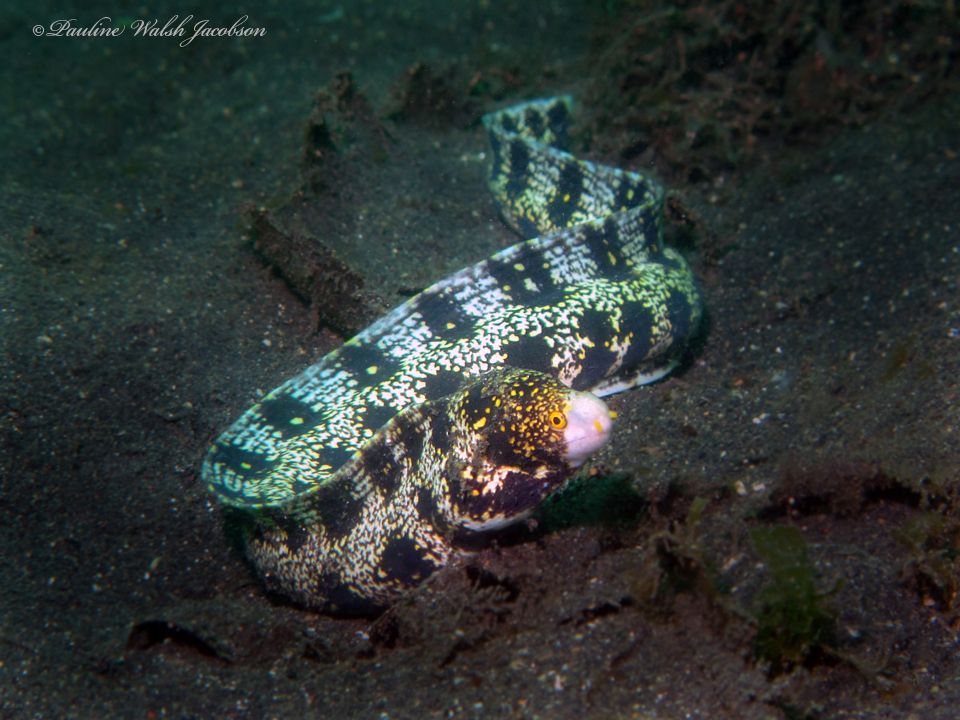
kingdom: Animalia
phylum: Chordata
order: Anguilliformes
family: Muraenidae
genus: Echidna
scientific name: Echidna nebulosa
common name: Snowflake moray
